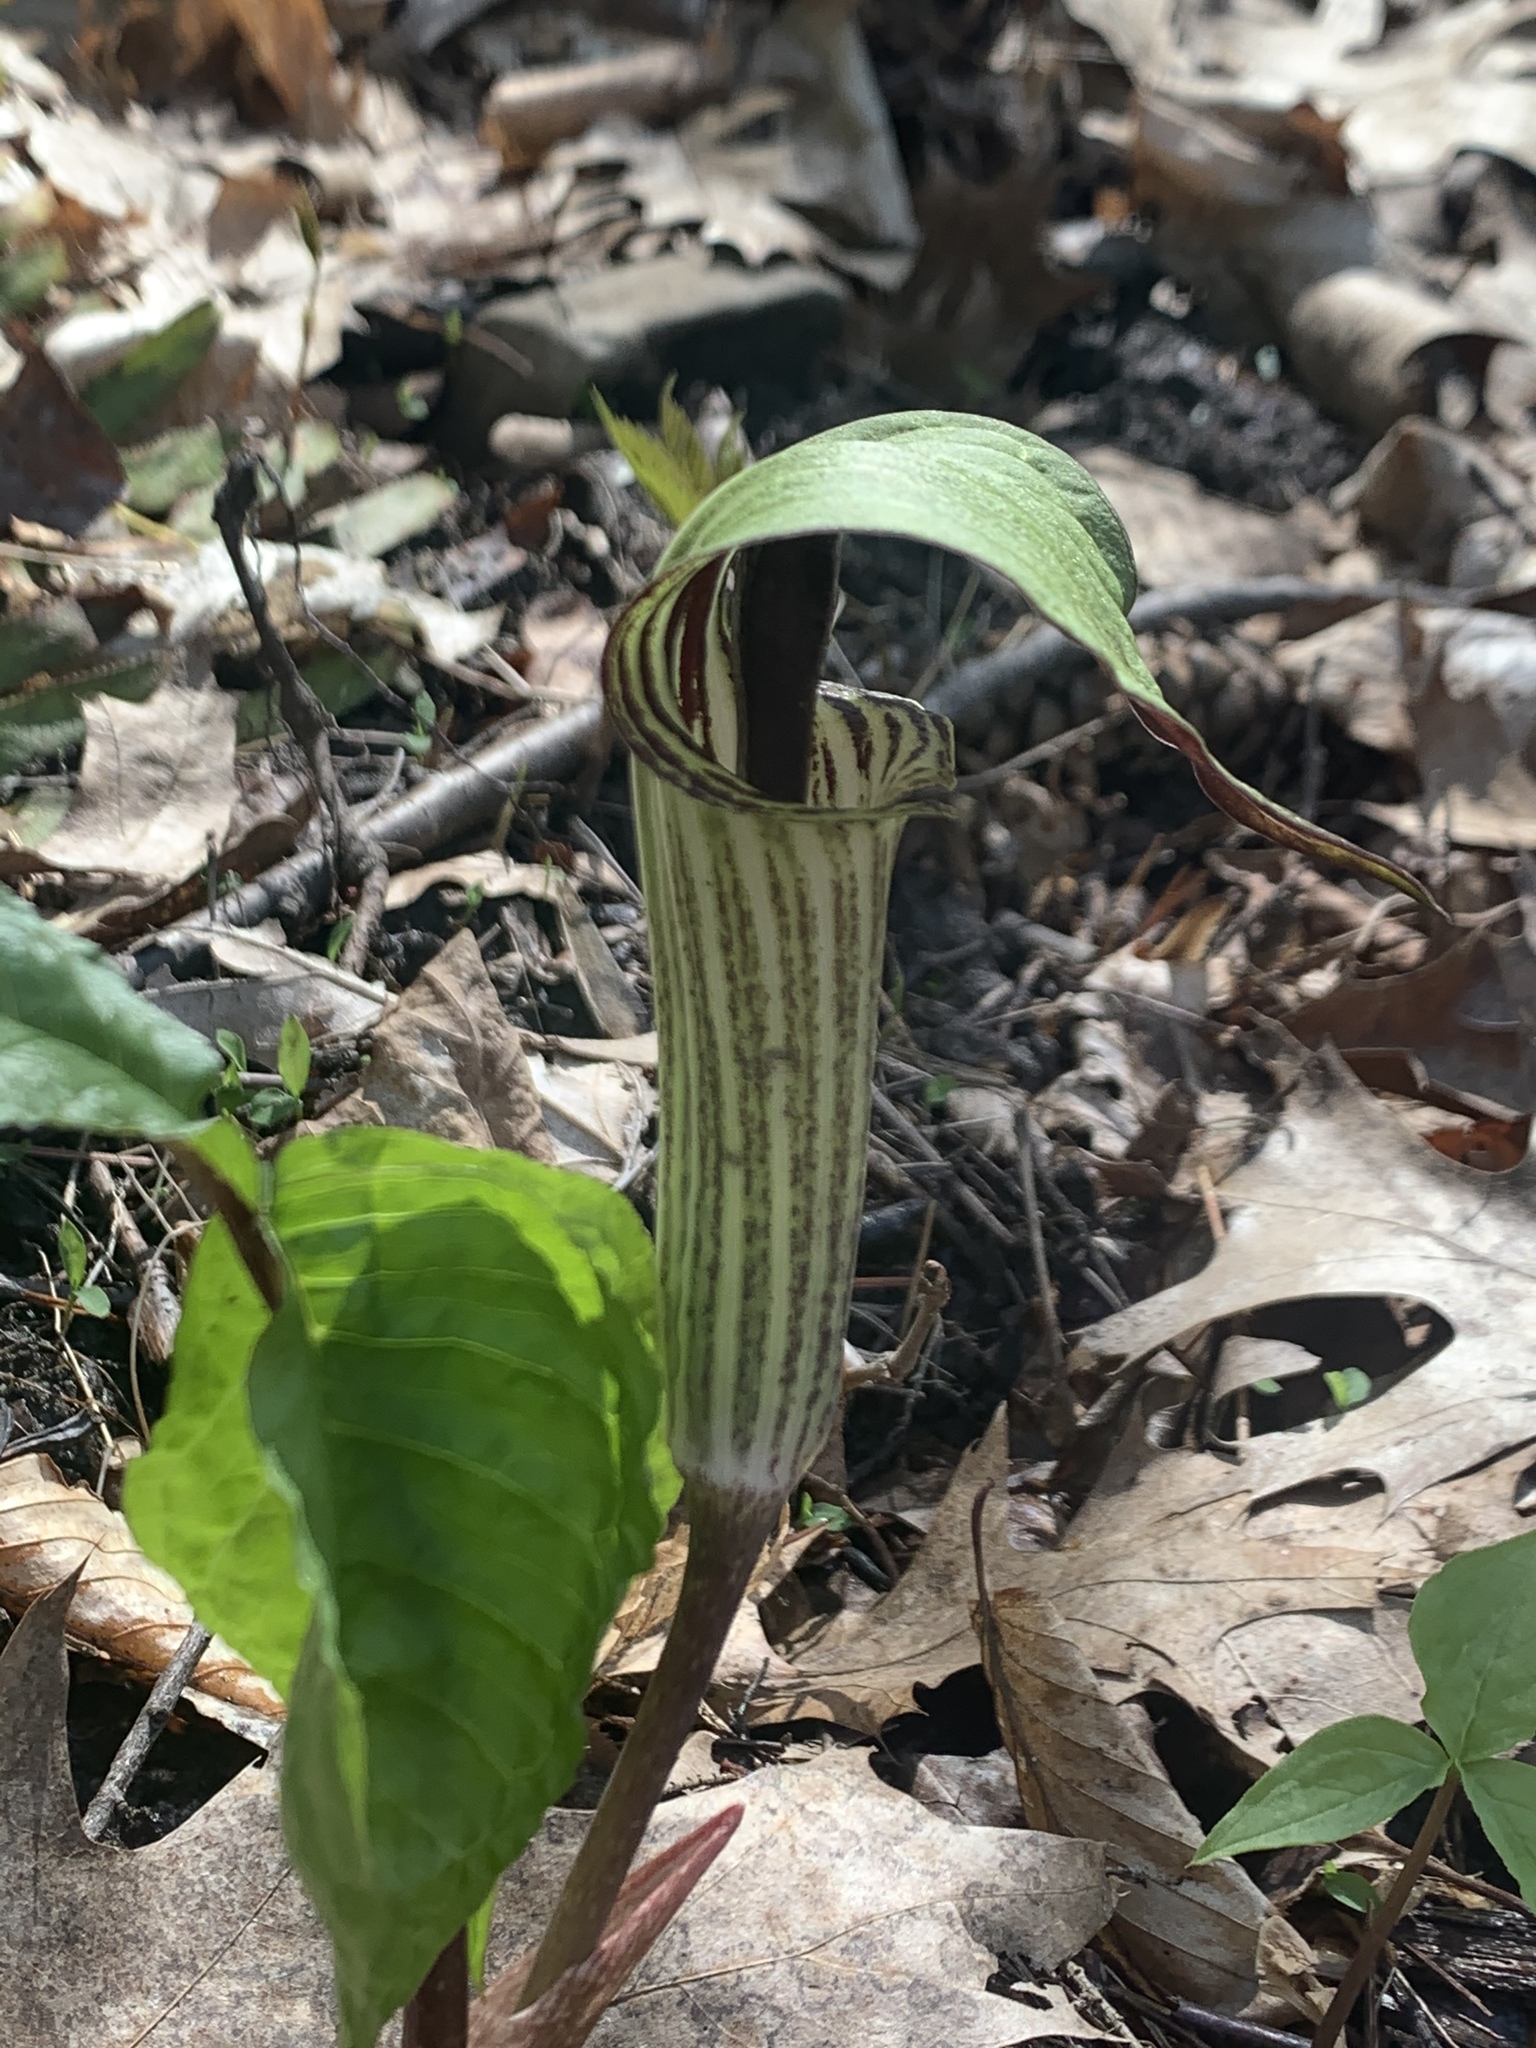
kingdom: Plantae
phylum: Tracheophyta
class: Liliopsida
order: Alismatales
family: Araceae
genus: Arisaema
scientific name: Arisaema triphyllum
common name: Jack-in-the-pulpit
